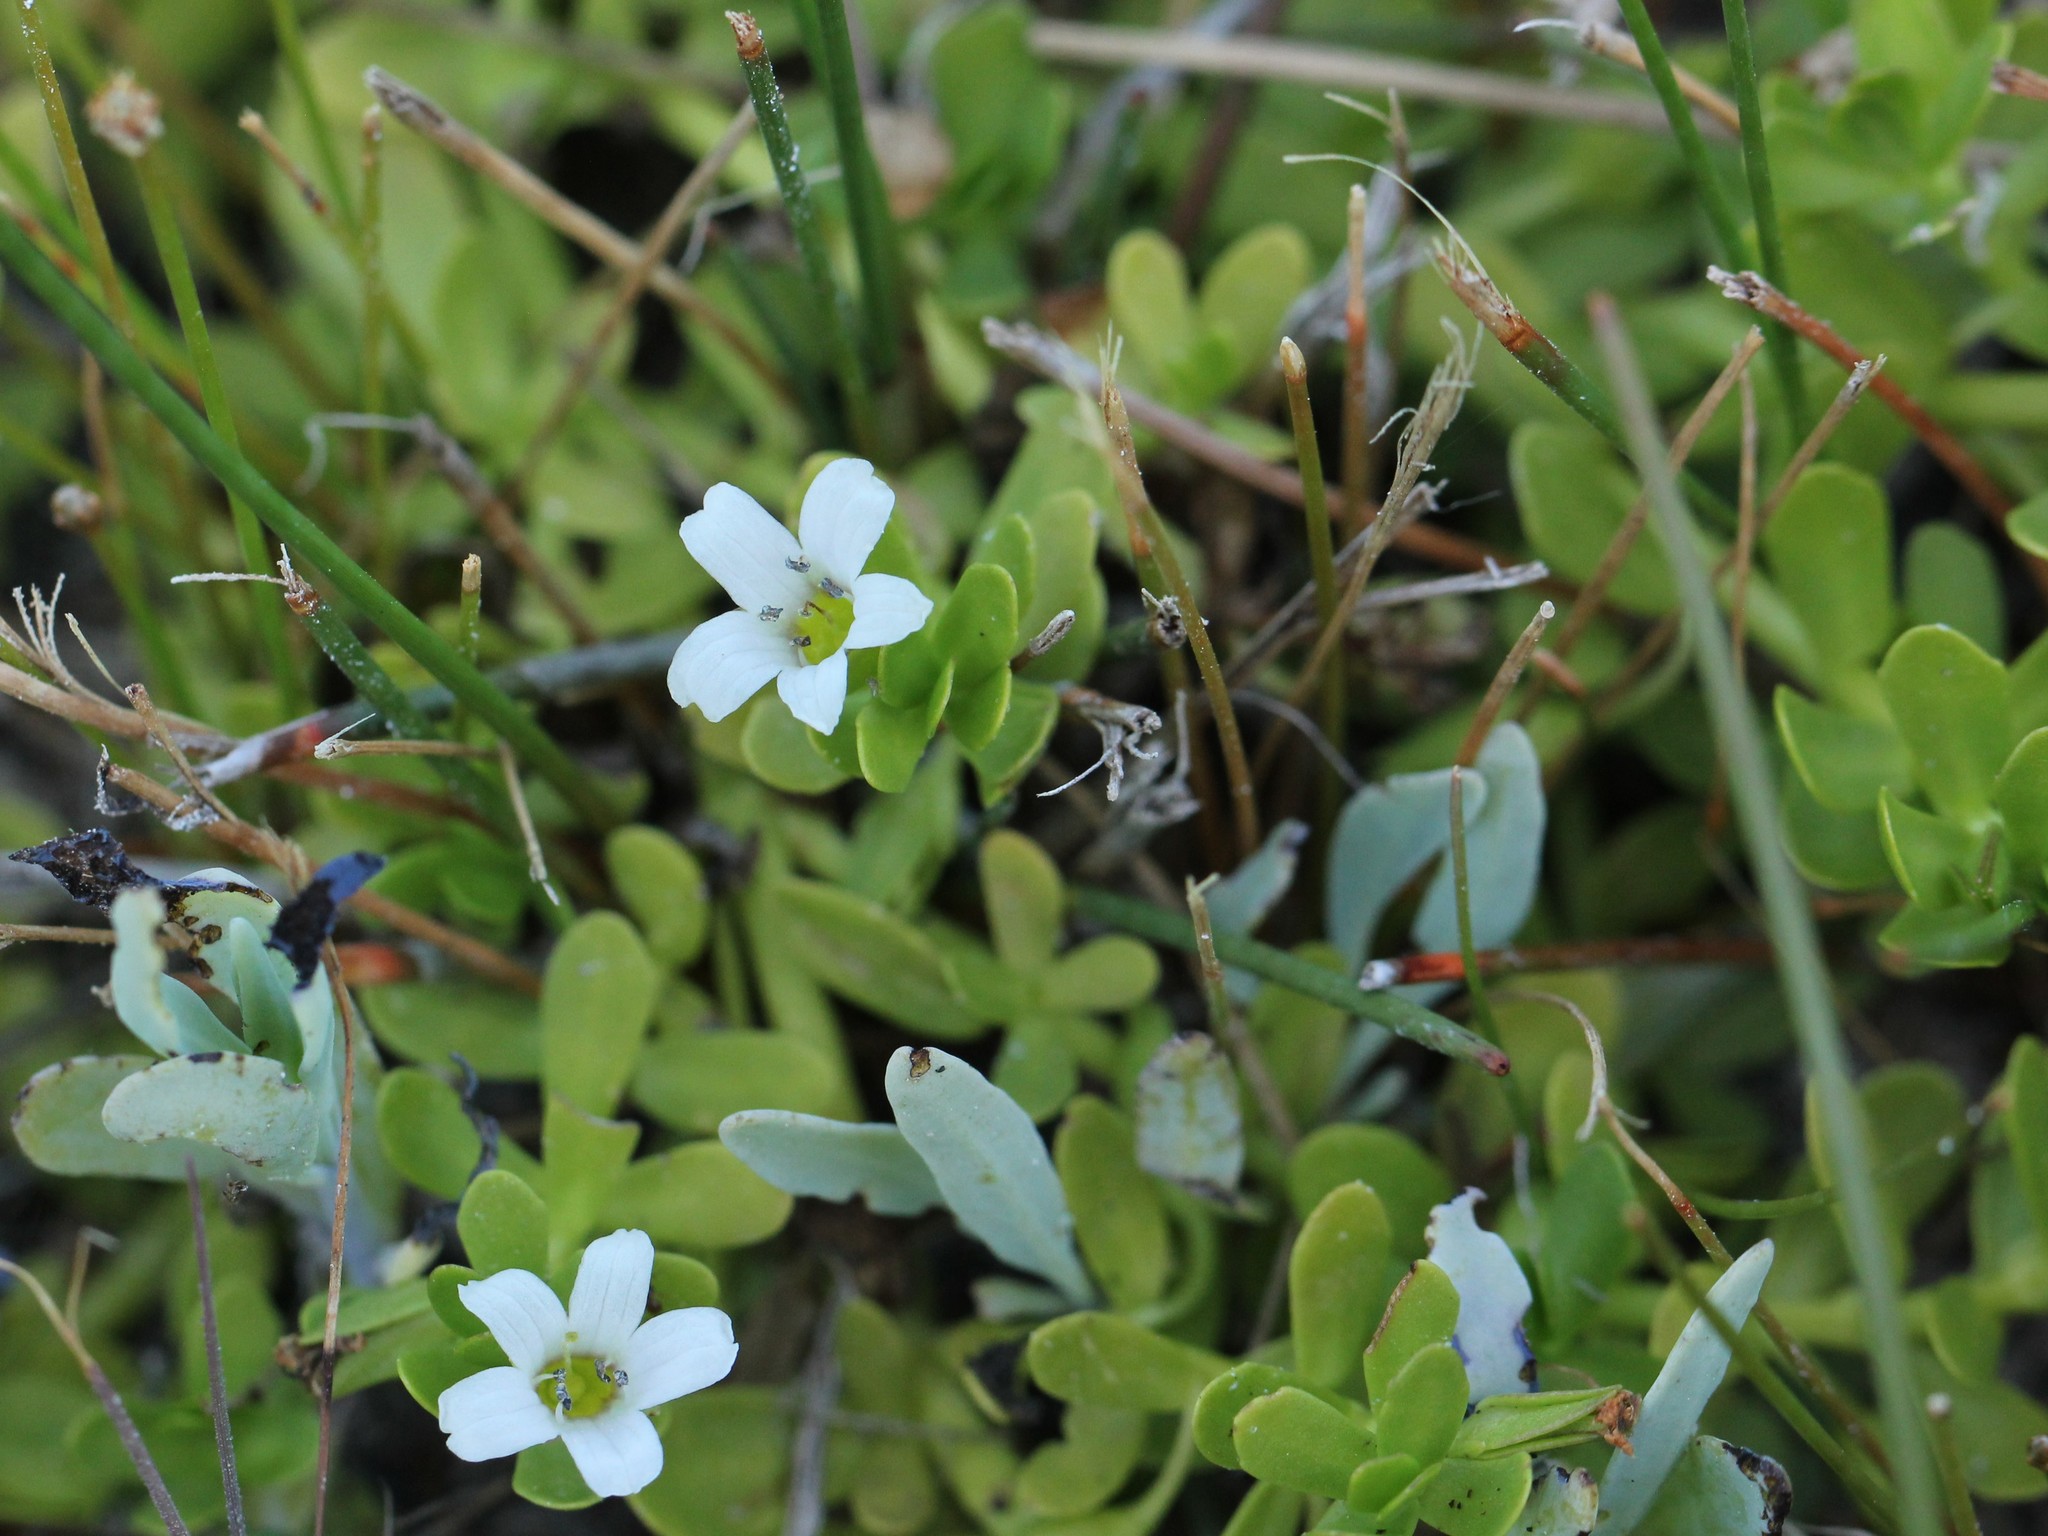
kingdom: Plantae
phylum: Tracheophyta
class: Magnoliopsida
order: Lamiales
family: Plantaginaceae
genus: Bacopa
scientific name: Bacopa monnieri
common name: Indian-pennywort
